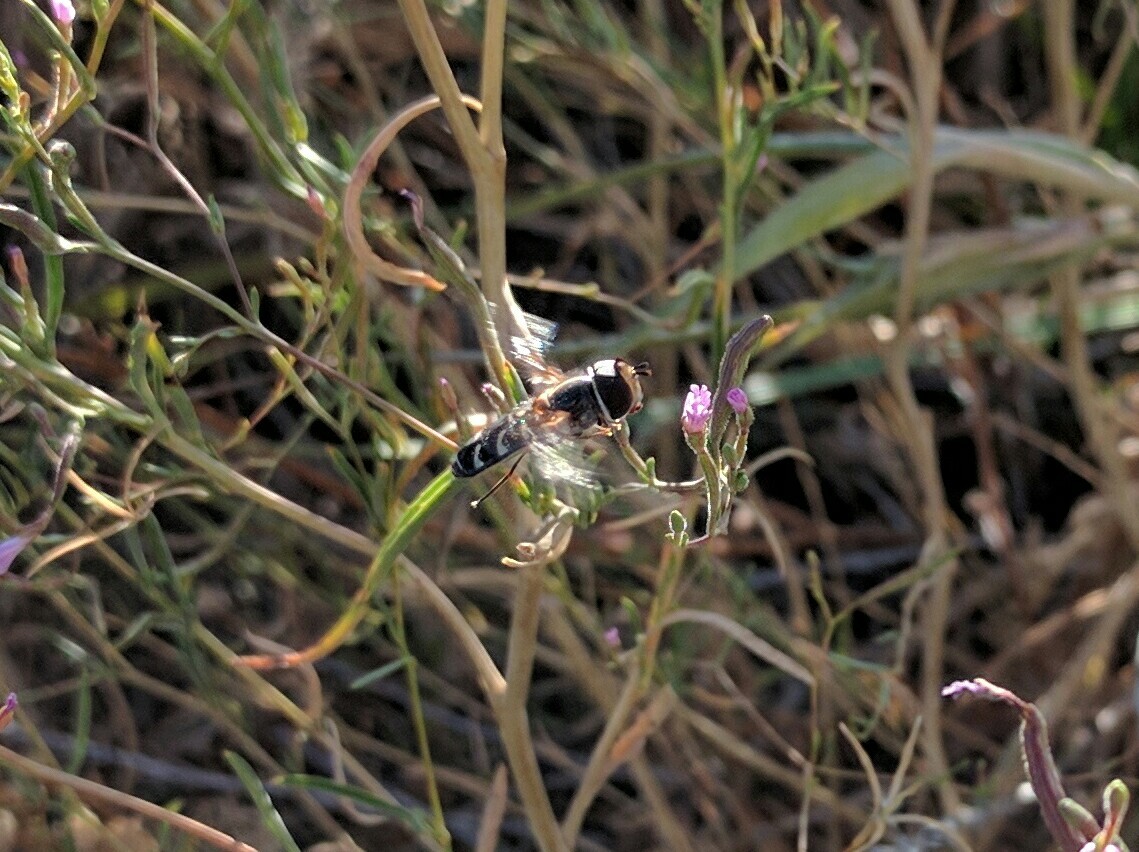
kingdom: Animalia
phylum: Arthropoda
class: Insecta
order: Diptera
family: Syrphidae
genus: Scaeva
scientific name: Scaeva affinis
